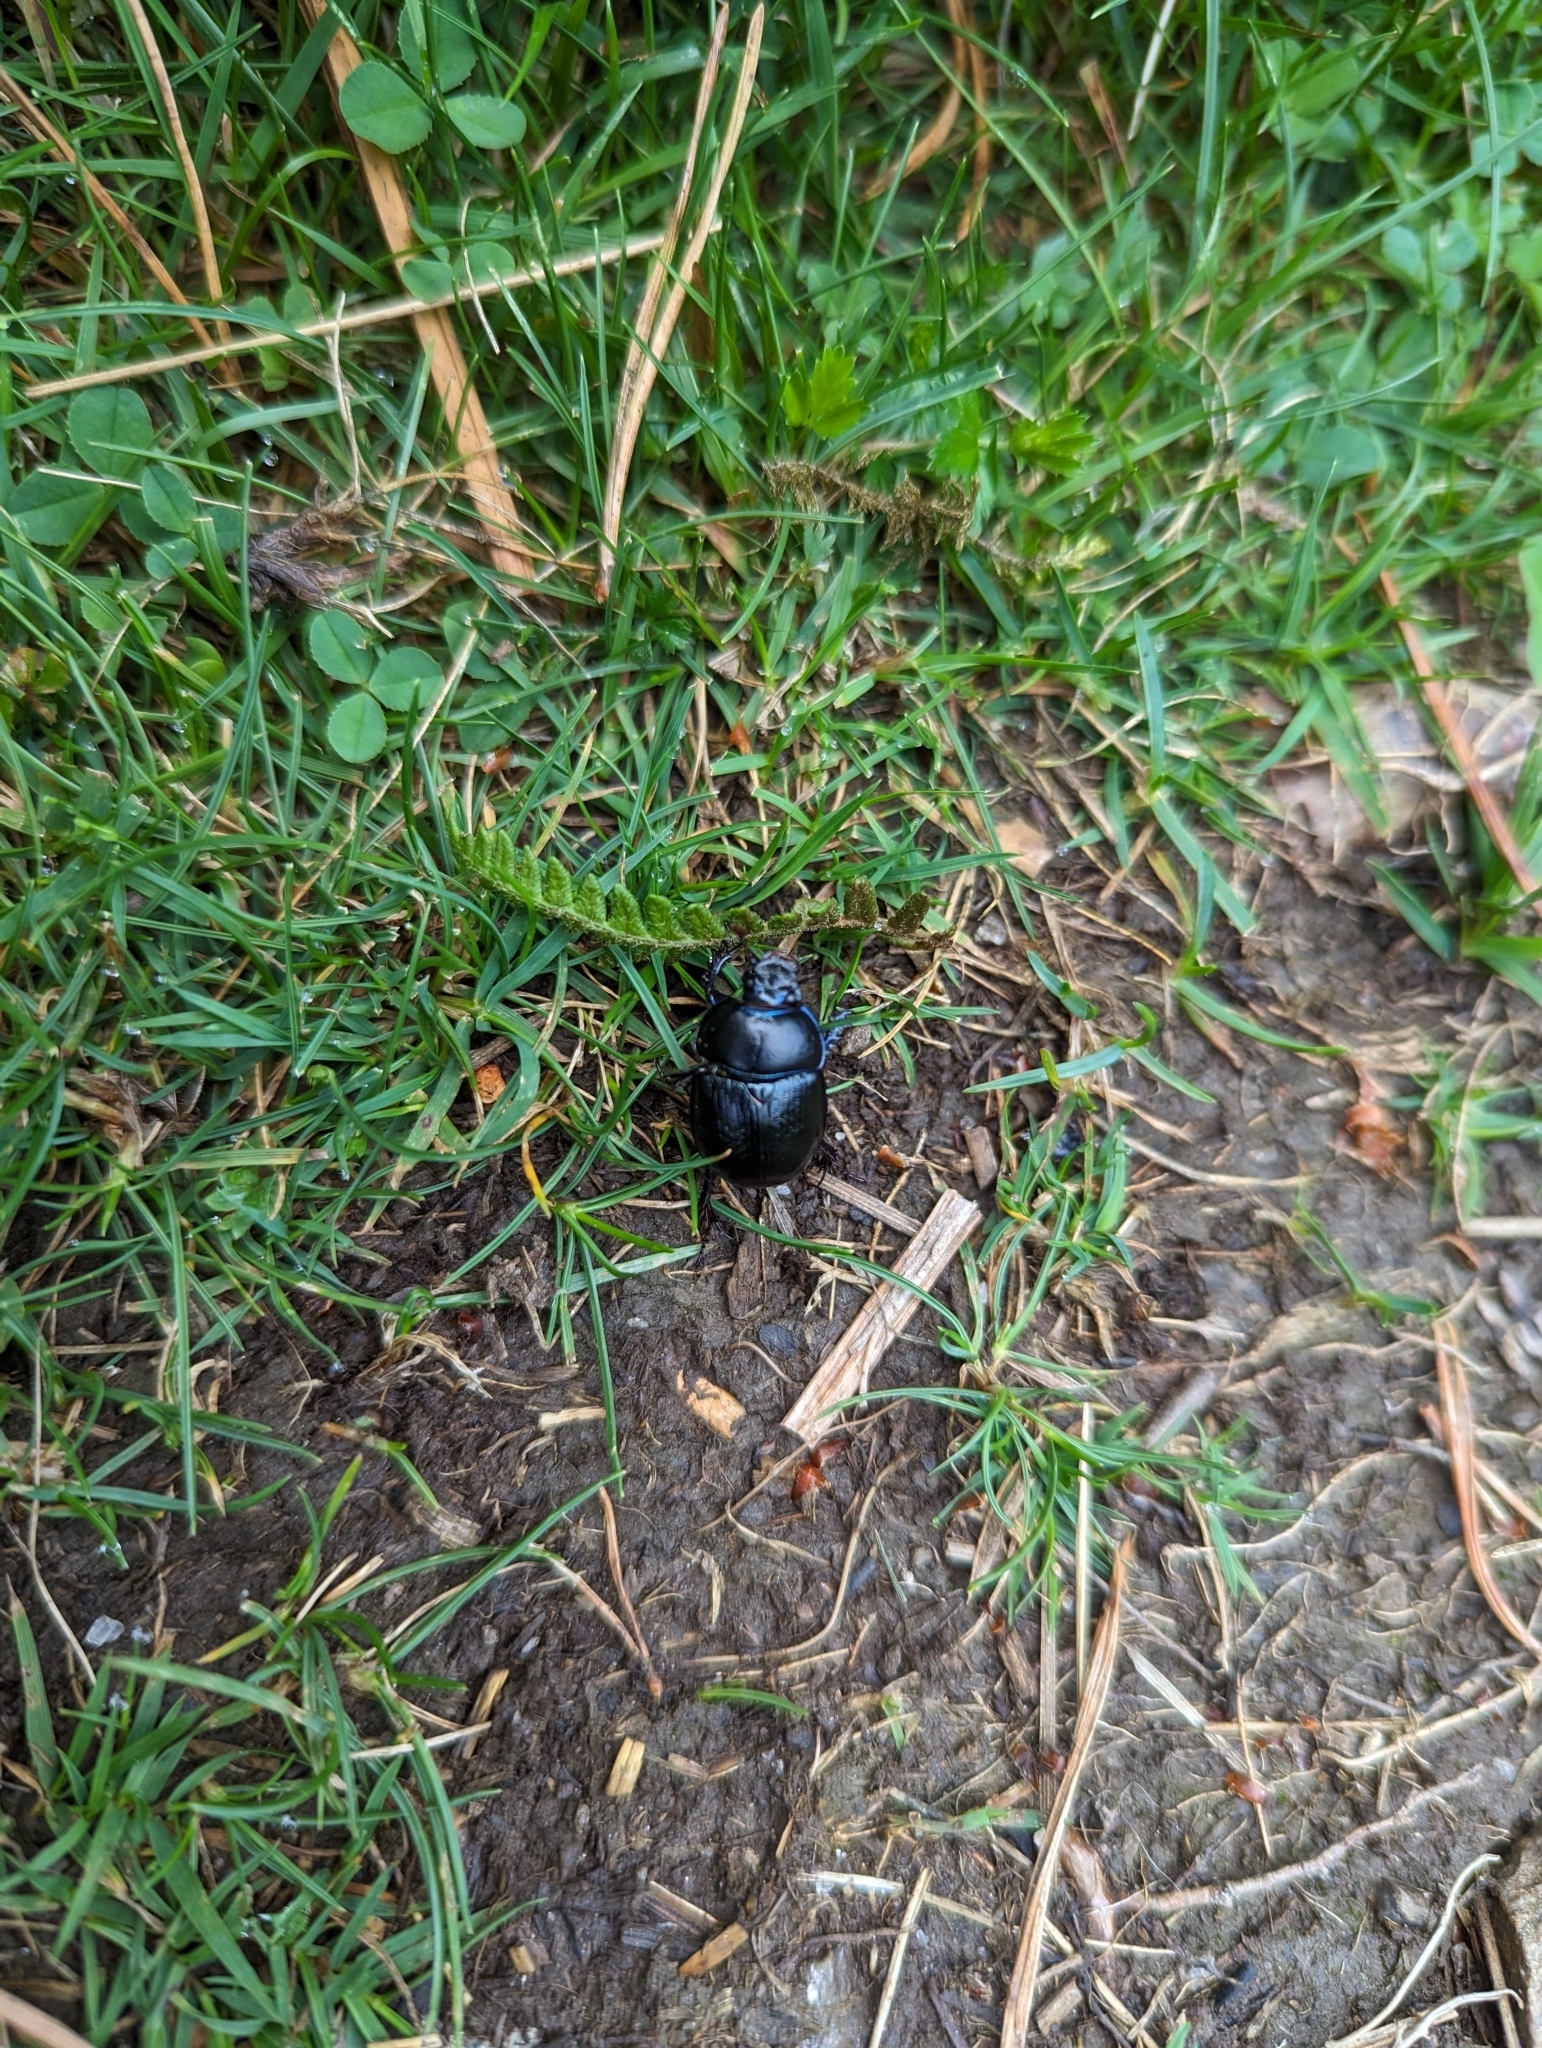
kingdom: Animalia
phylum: Arthropoda
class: Insecta
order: Coleoptera
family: Geotrupidae
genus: Anoplotrupes
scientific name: Anoplotrupes stercorosus
